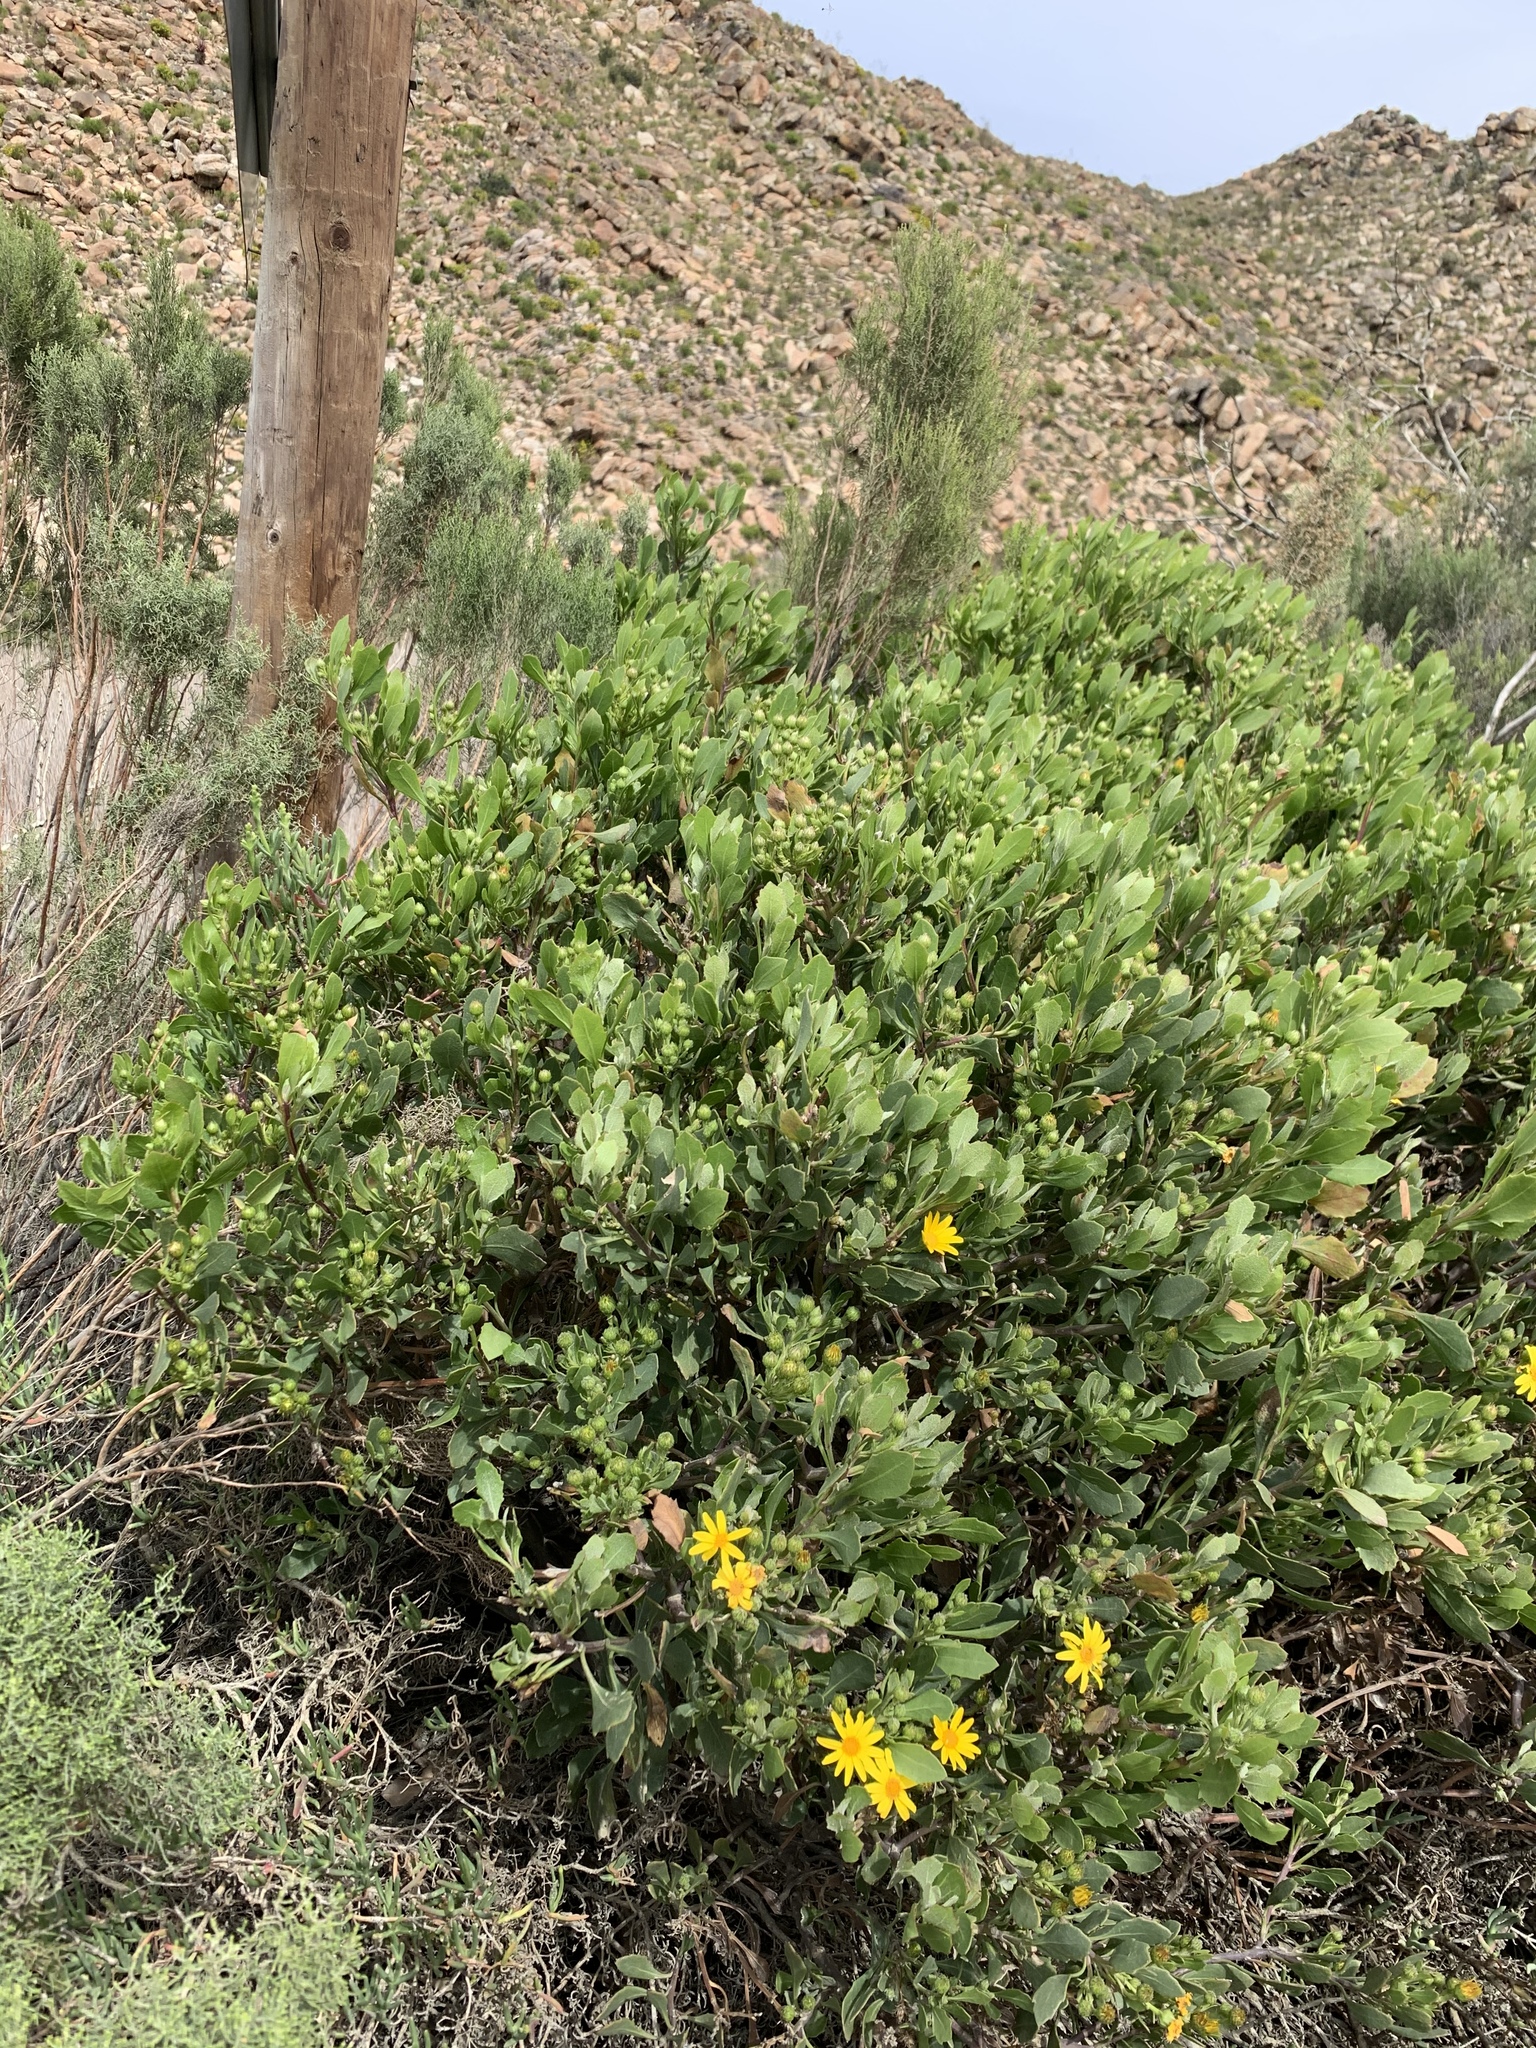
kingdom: Plantae
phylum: Tracheophyta
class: Magnoliopsida
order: Asterales
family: Asteraceae
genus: Osteospermum
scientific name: Osteospermum moniliferum
